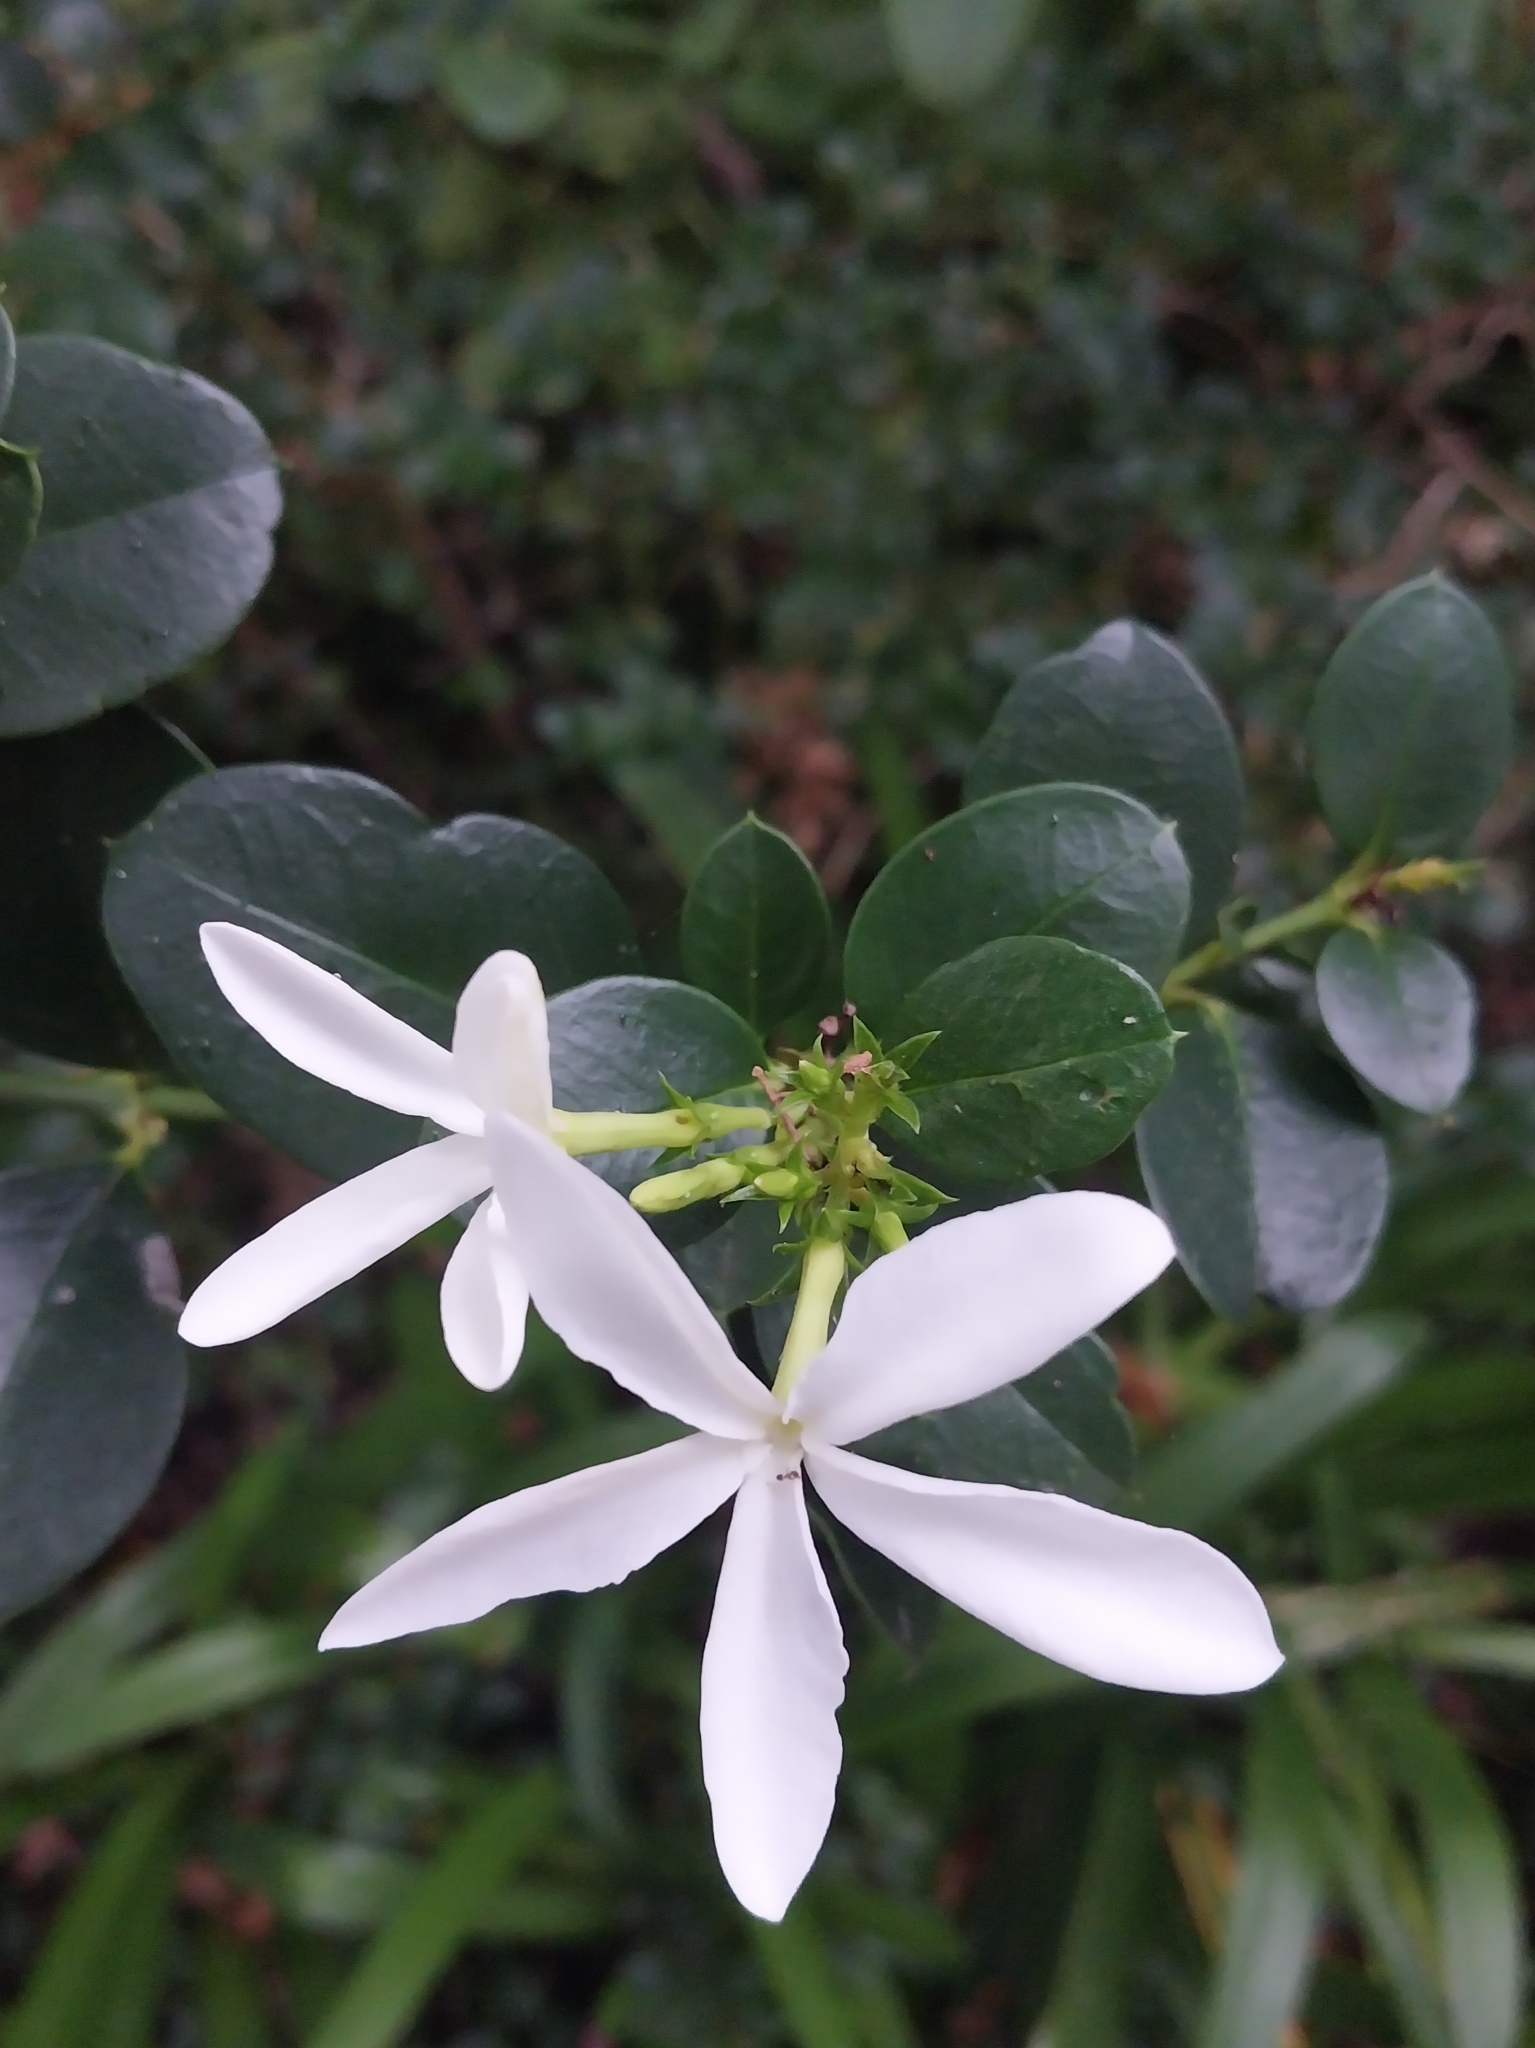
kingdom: Plantae
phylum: Tracheophyta
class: Magnoliopsida
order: Gentianales
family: Apocynaceae
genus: Carissa
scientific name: Carissa macrocarpa
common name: Natal plum
